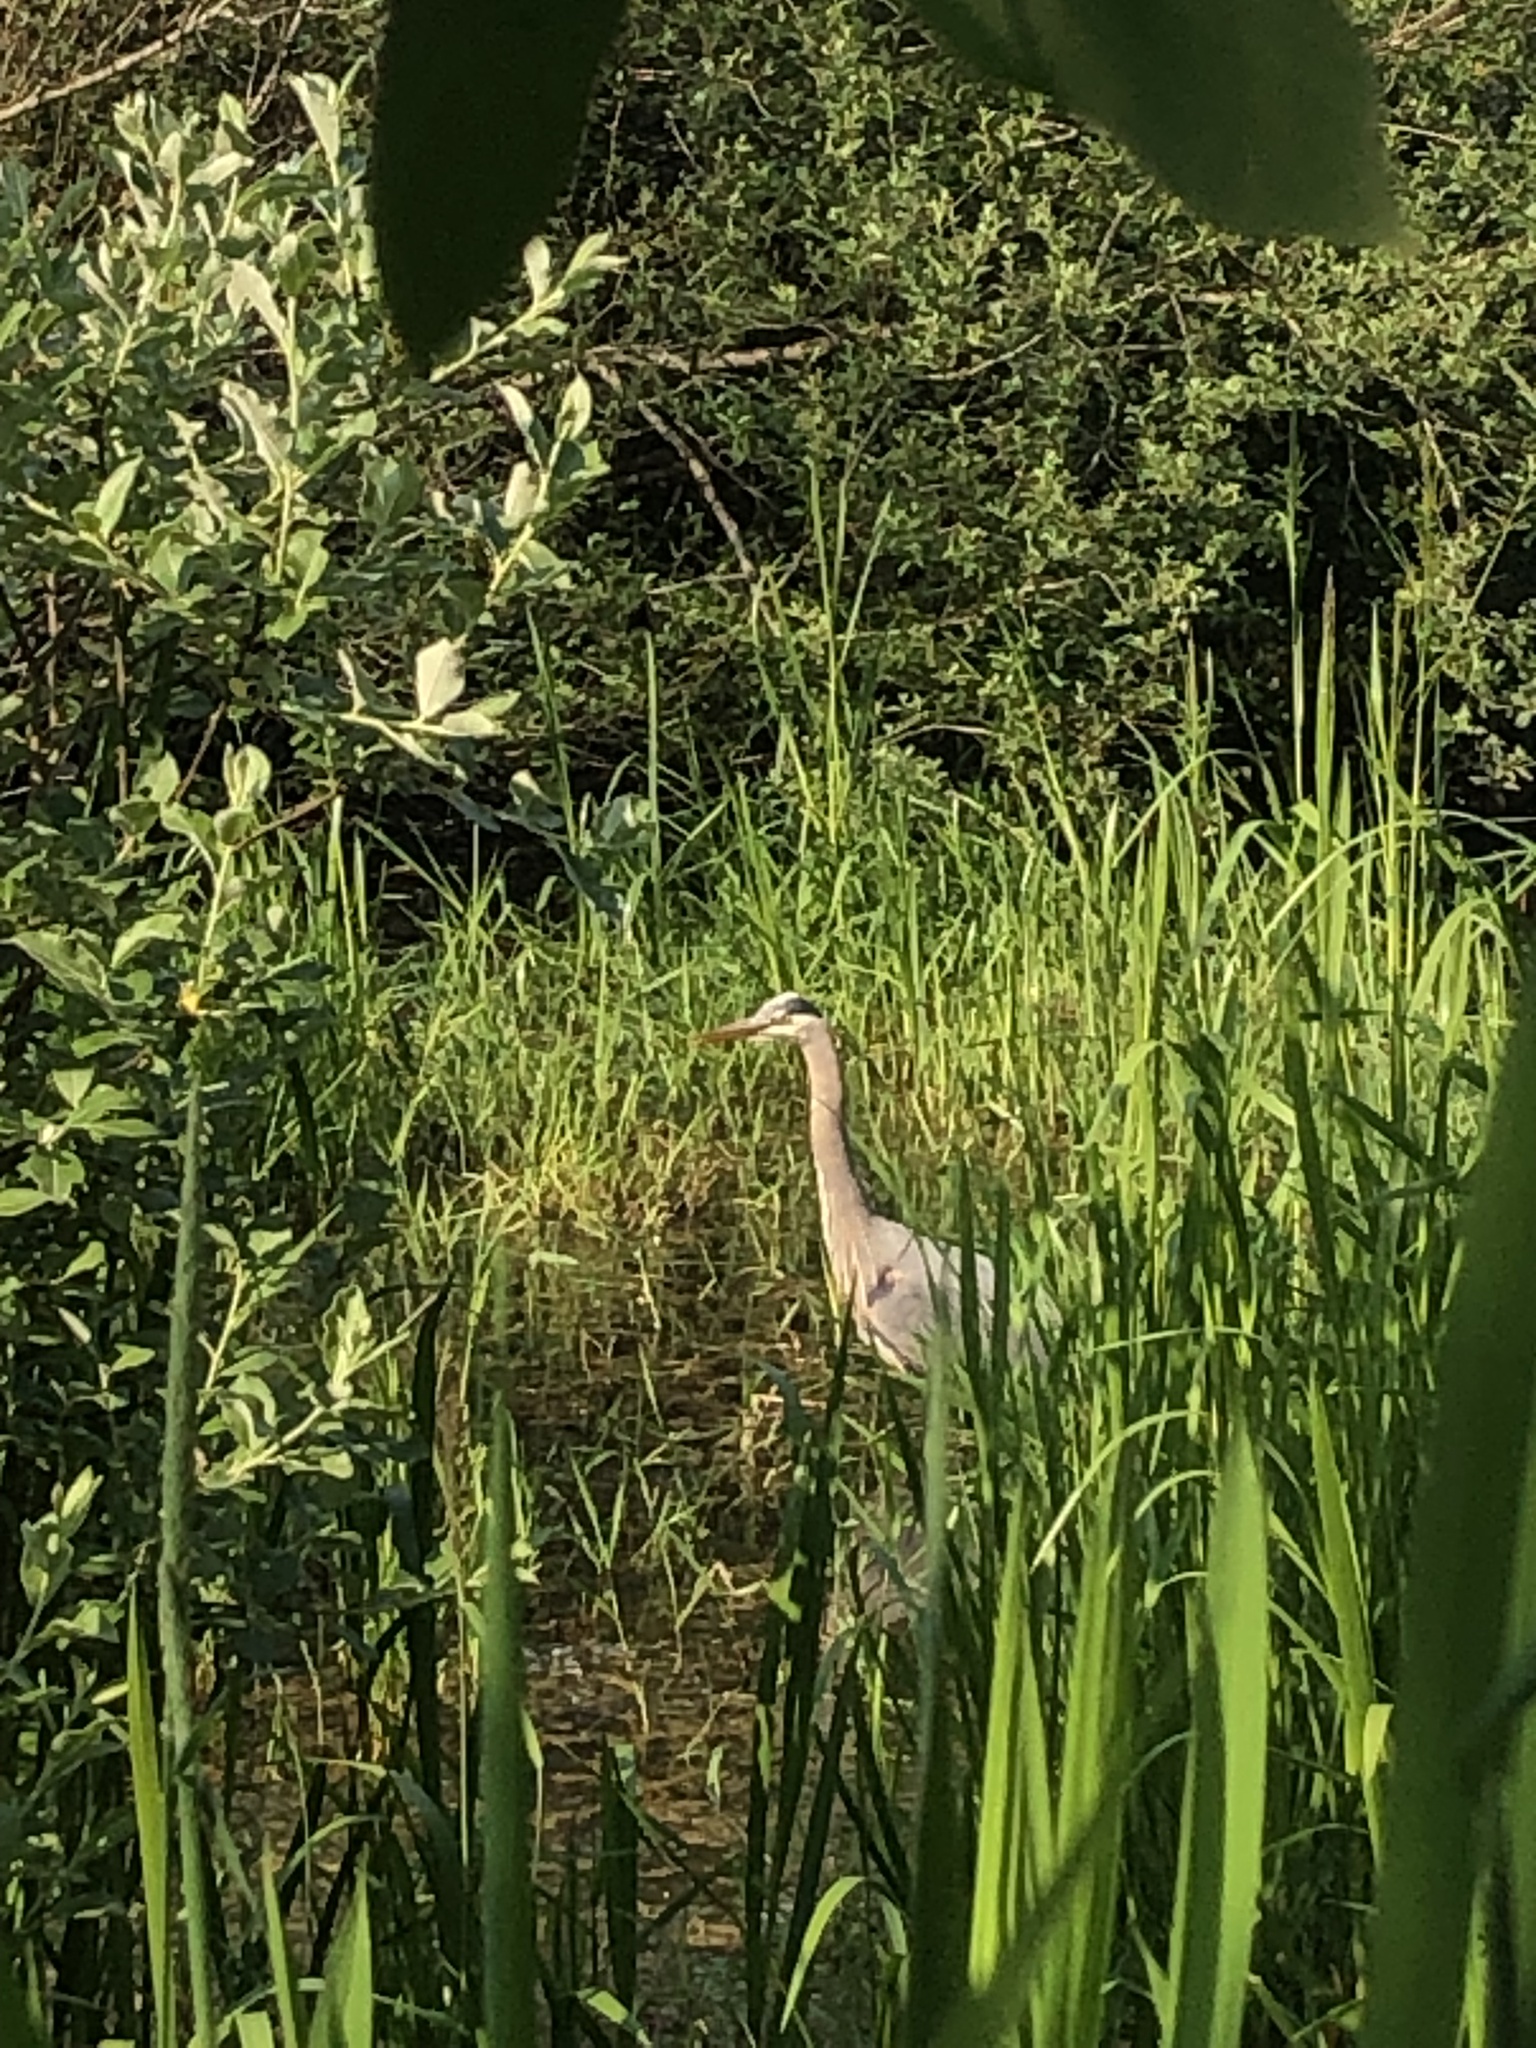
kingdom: Animalia
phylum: Chordata
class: Aves
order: Pelecaniformes
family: Ardeidae
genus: Ardea
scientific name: Ardea herodias
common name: Great blue heron
